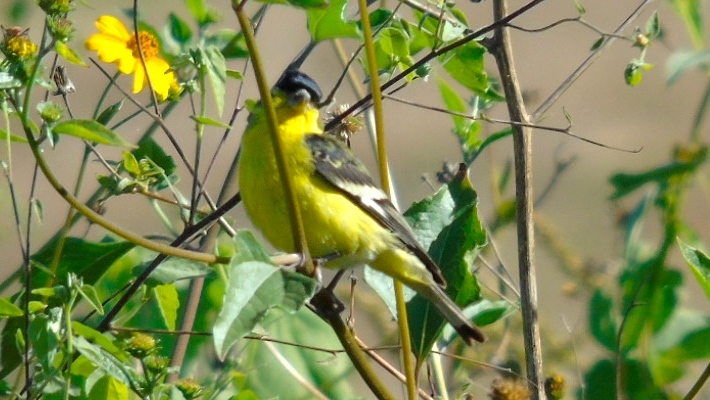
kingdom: Animalia
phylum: Chordata
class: Aves
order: Passeriformes
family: Fringillidae
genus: Spinus
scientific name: Spinus psaltria
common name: Lesser goldfinch
